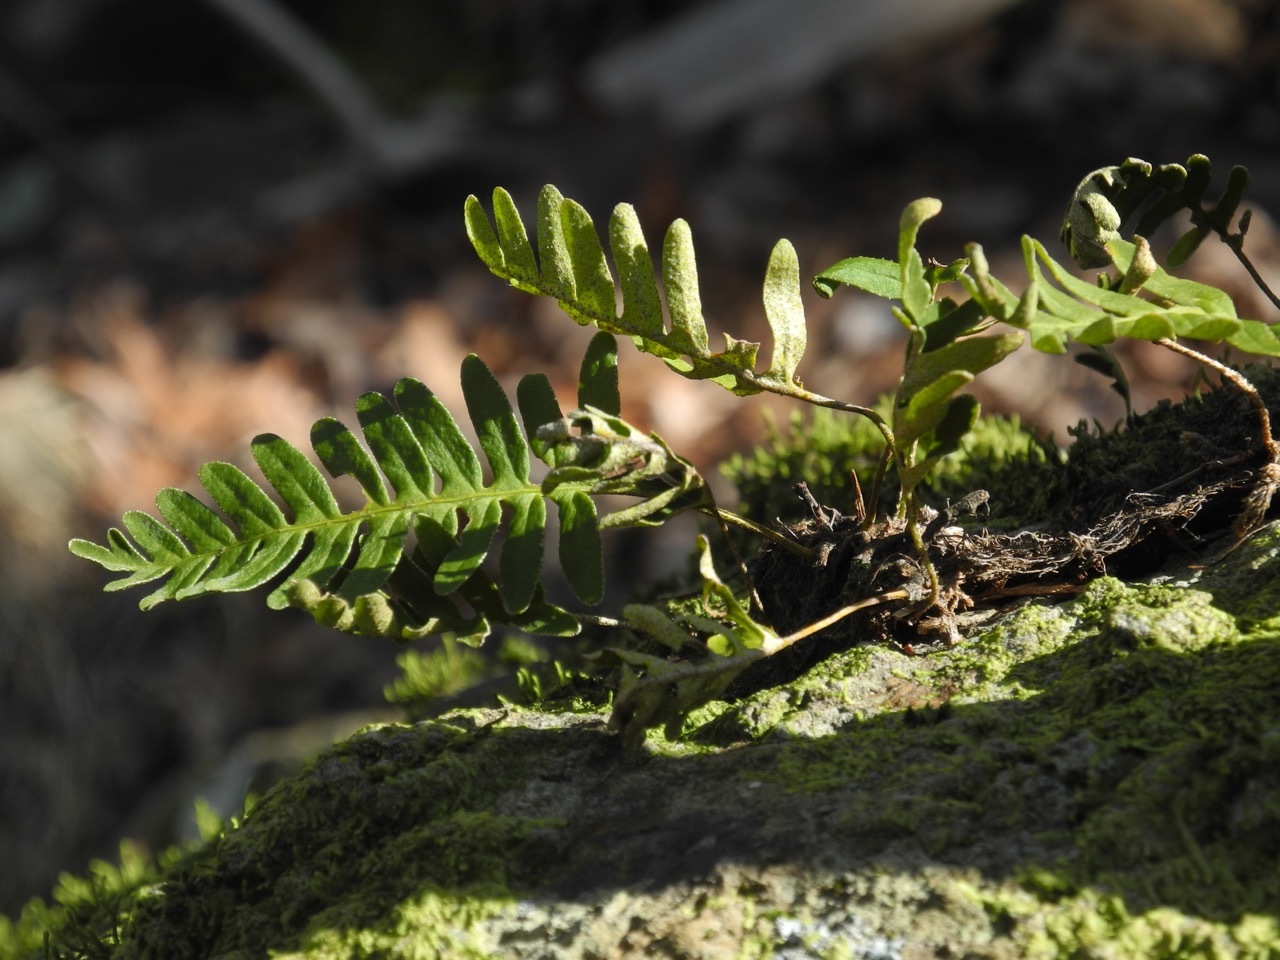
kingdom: Plantae
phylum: Tracheophyta
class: Polypodiopsida
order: Polypodiales
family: Polypodiaceae
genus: Pleopeltis
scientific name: Pleopeltis michauxiana
